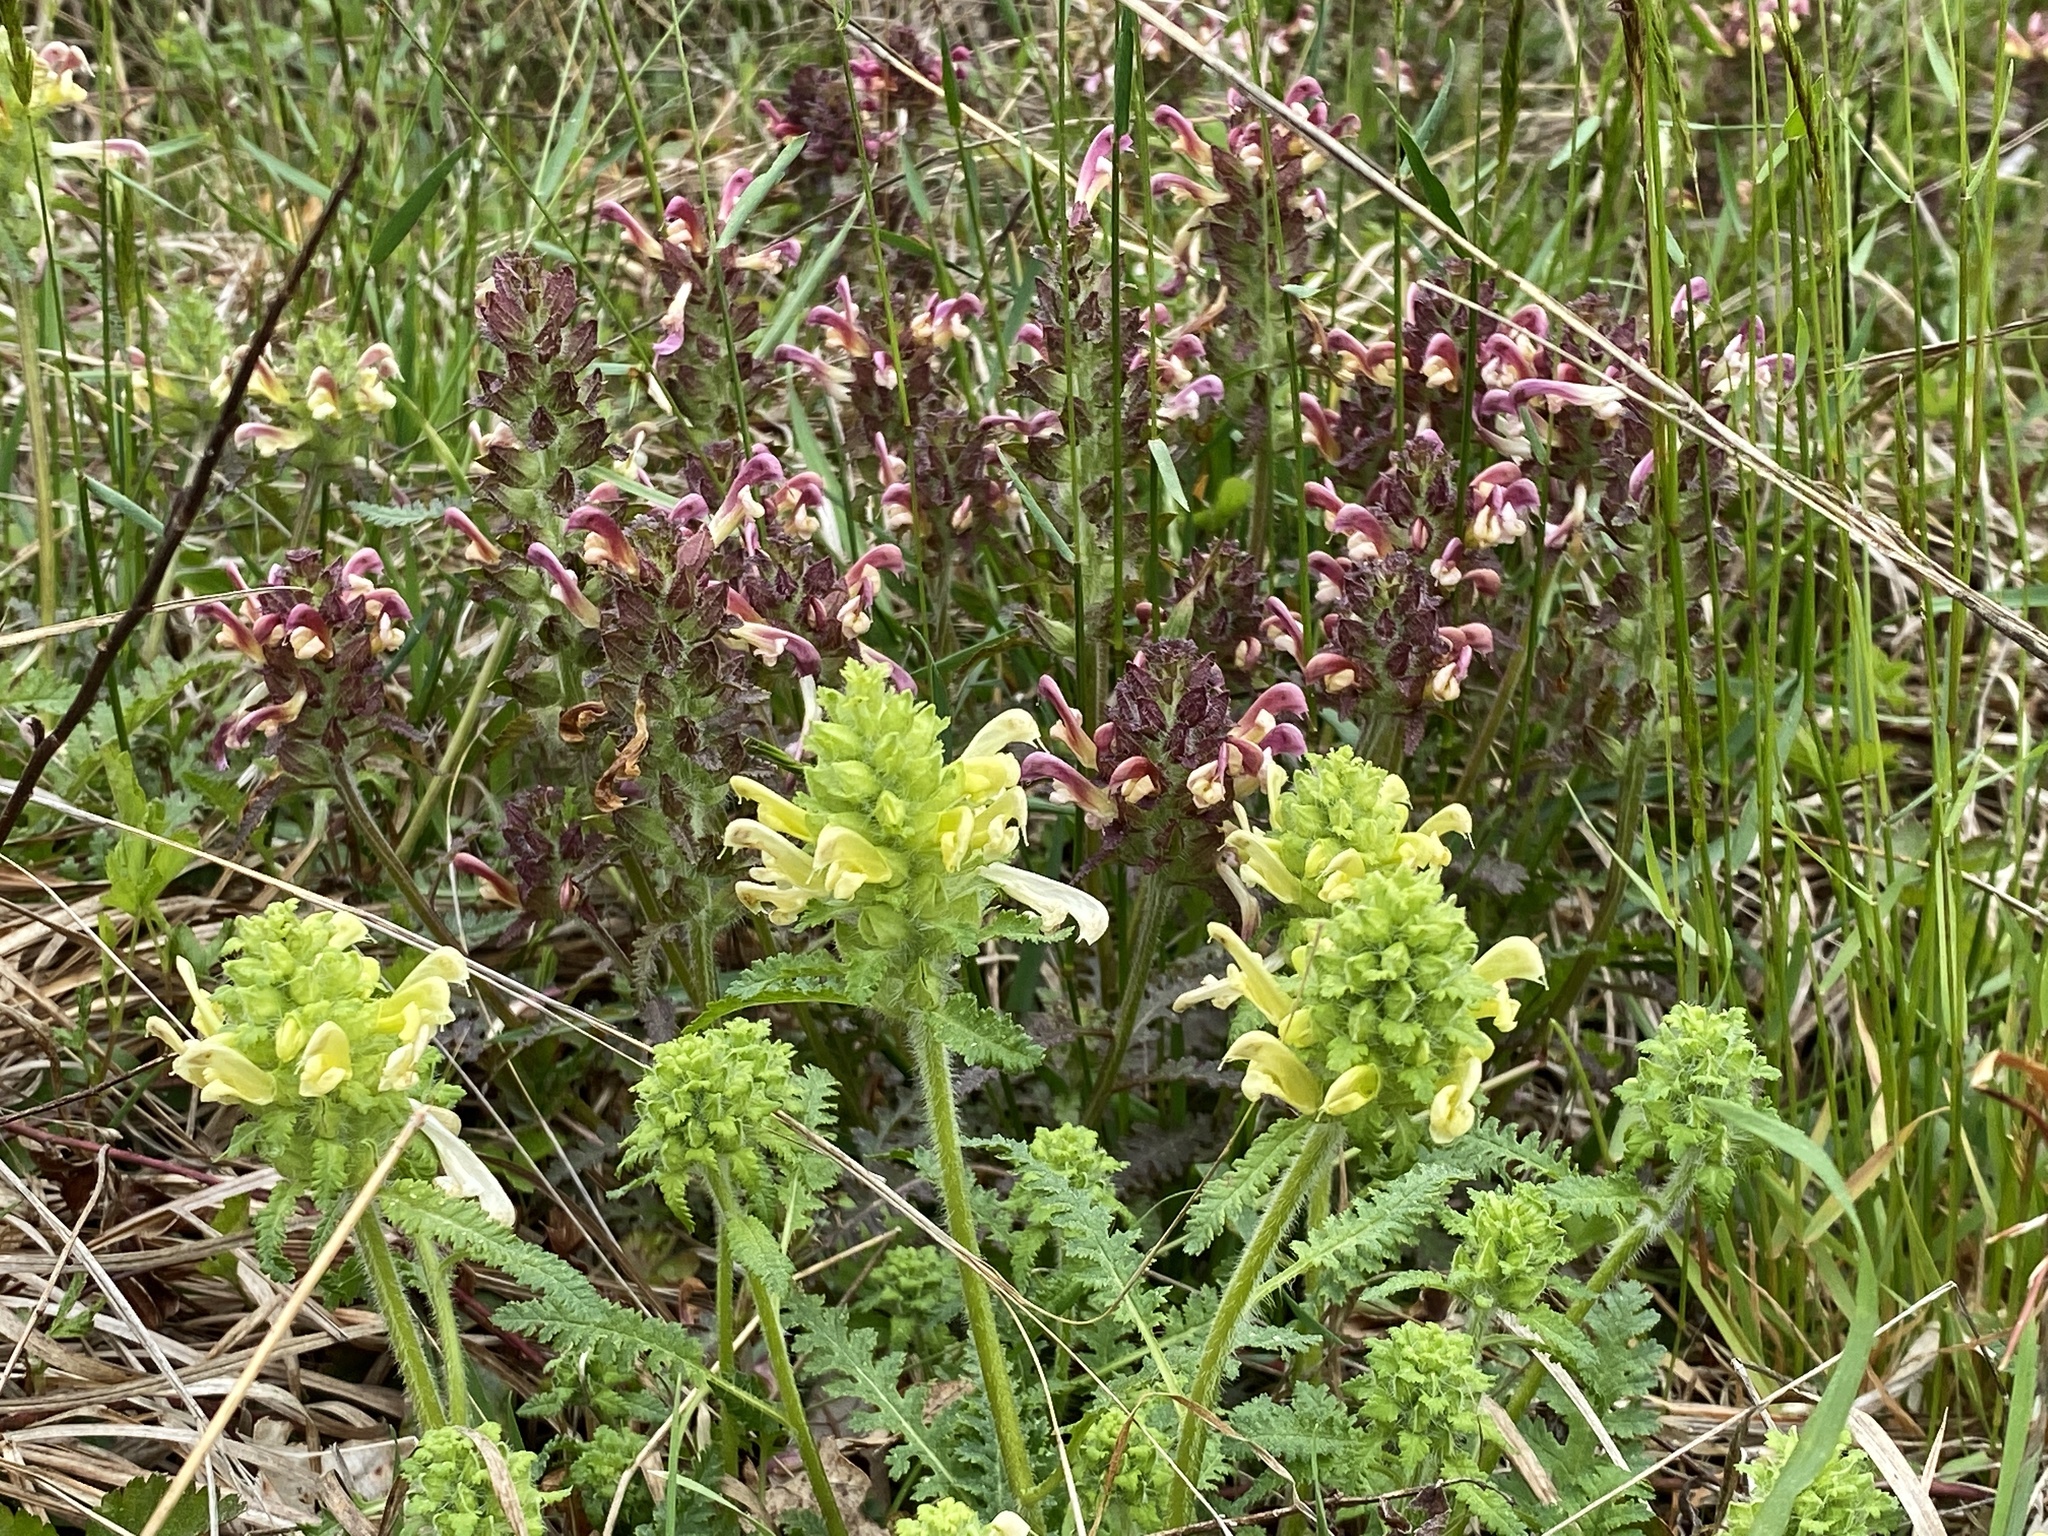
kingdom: Plantae
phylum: Tracheophyta
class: Magnoliopsida
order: Lamiales
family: Orobanchaceae
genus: Pedicularis
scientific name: Pedicularis canadensis
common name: Early lousewort
